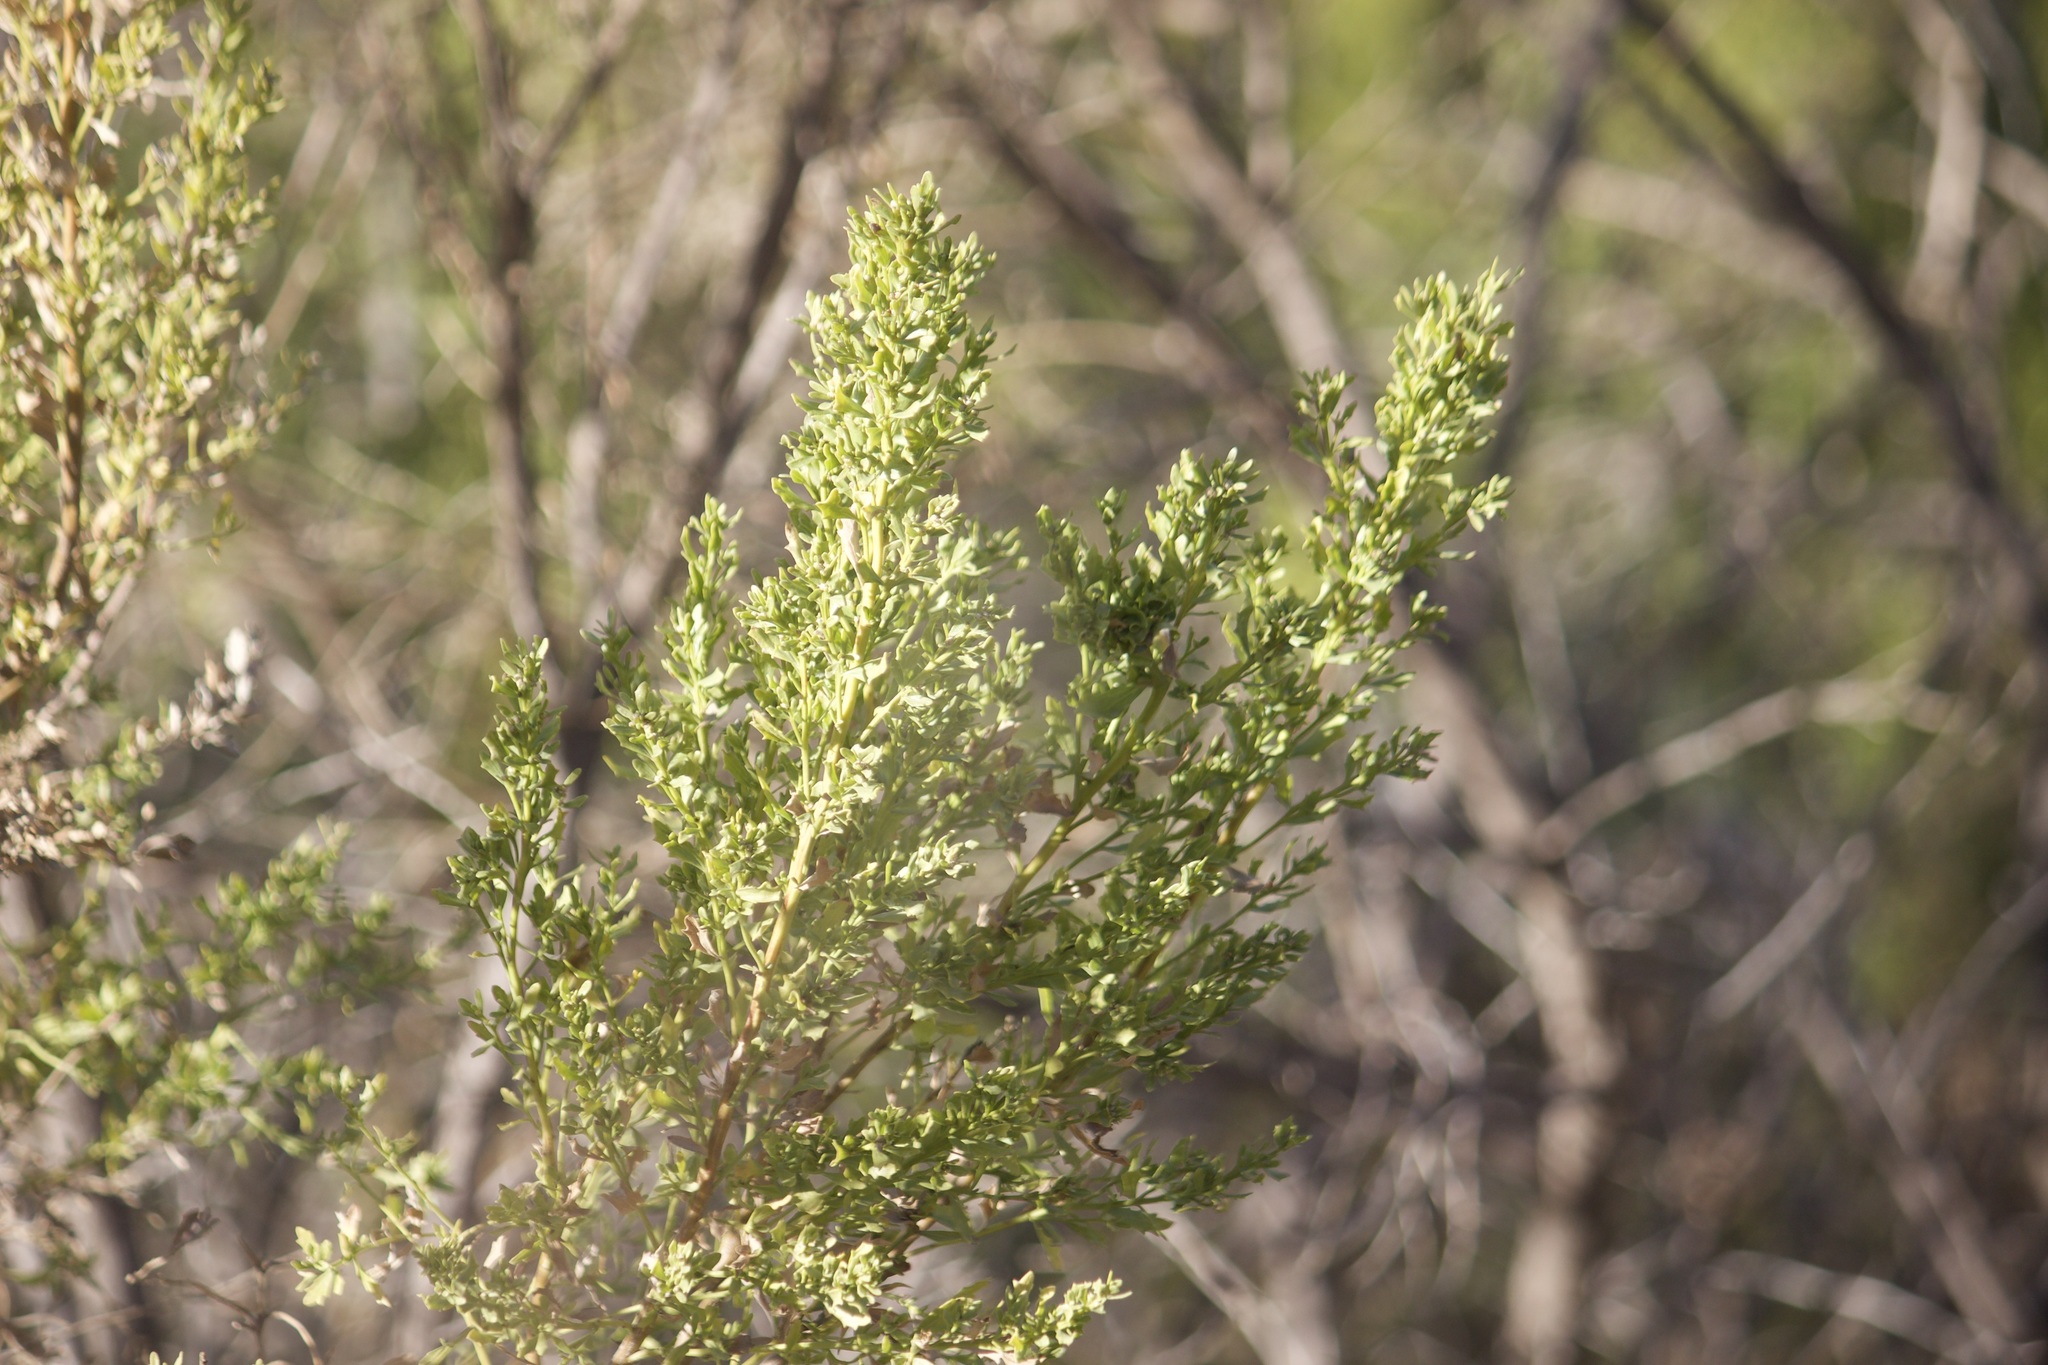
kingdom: Plantae
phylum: Tracheophyta
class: Magnoliopsida
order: Asterales
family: Asteraceae
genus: Baccharis
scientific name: Baccharis pilularis
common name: Coyotebrush
